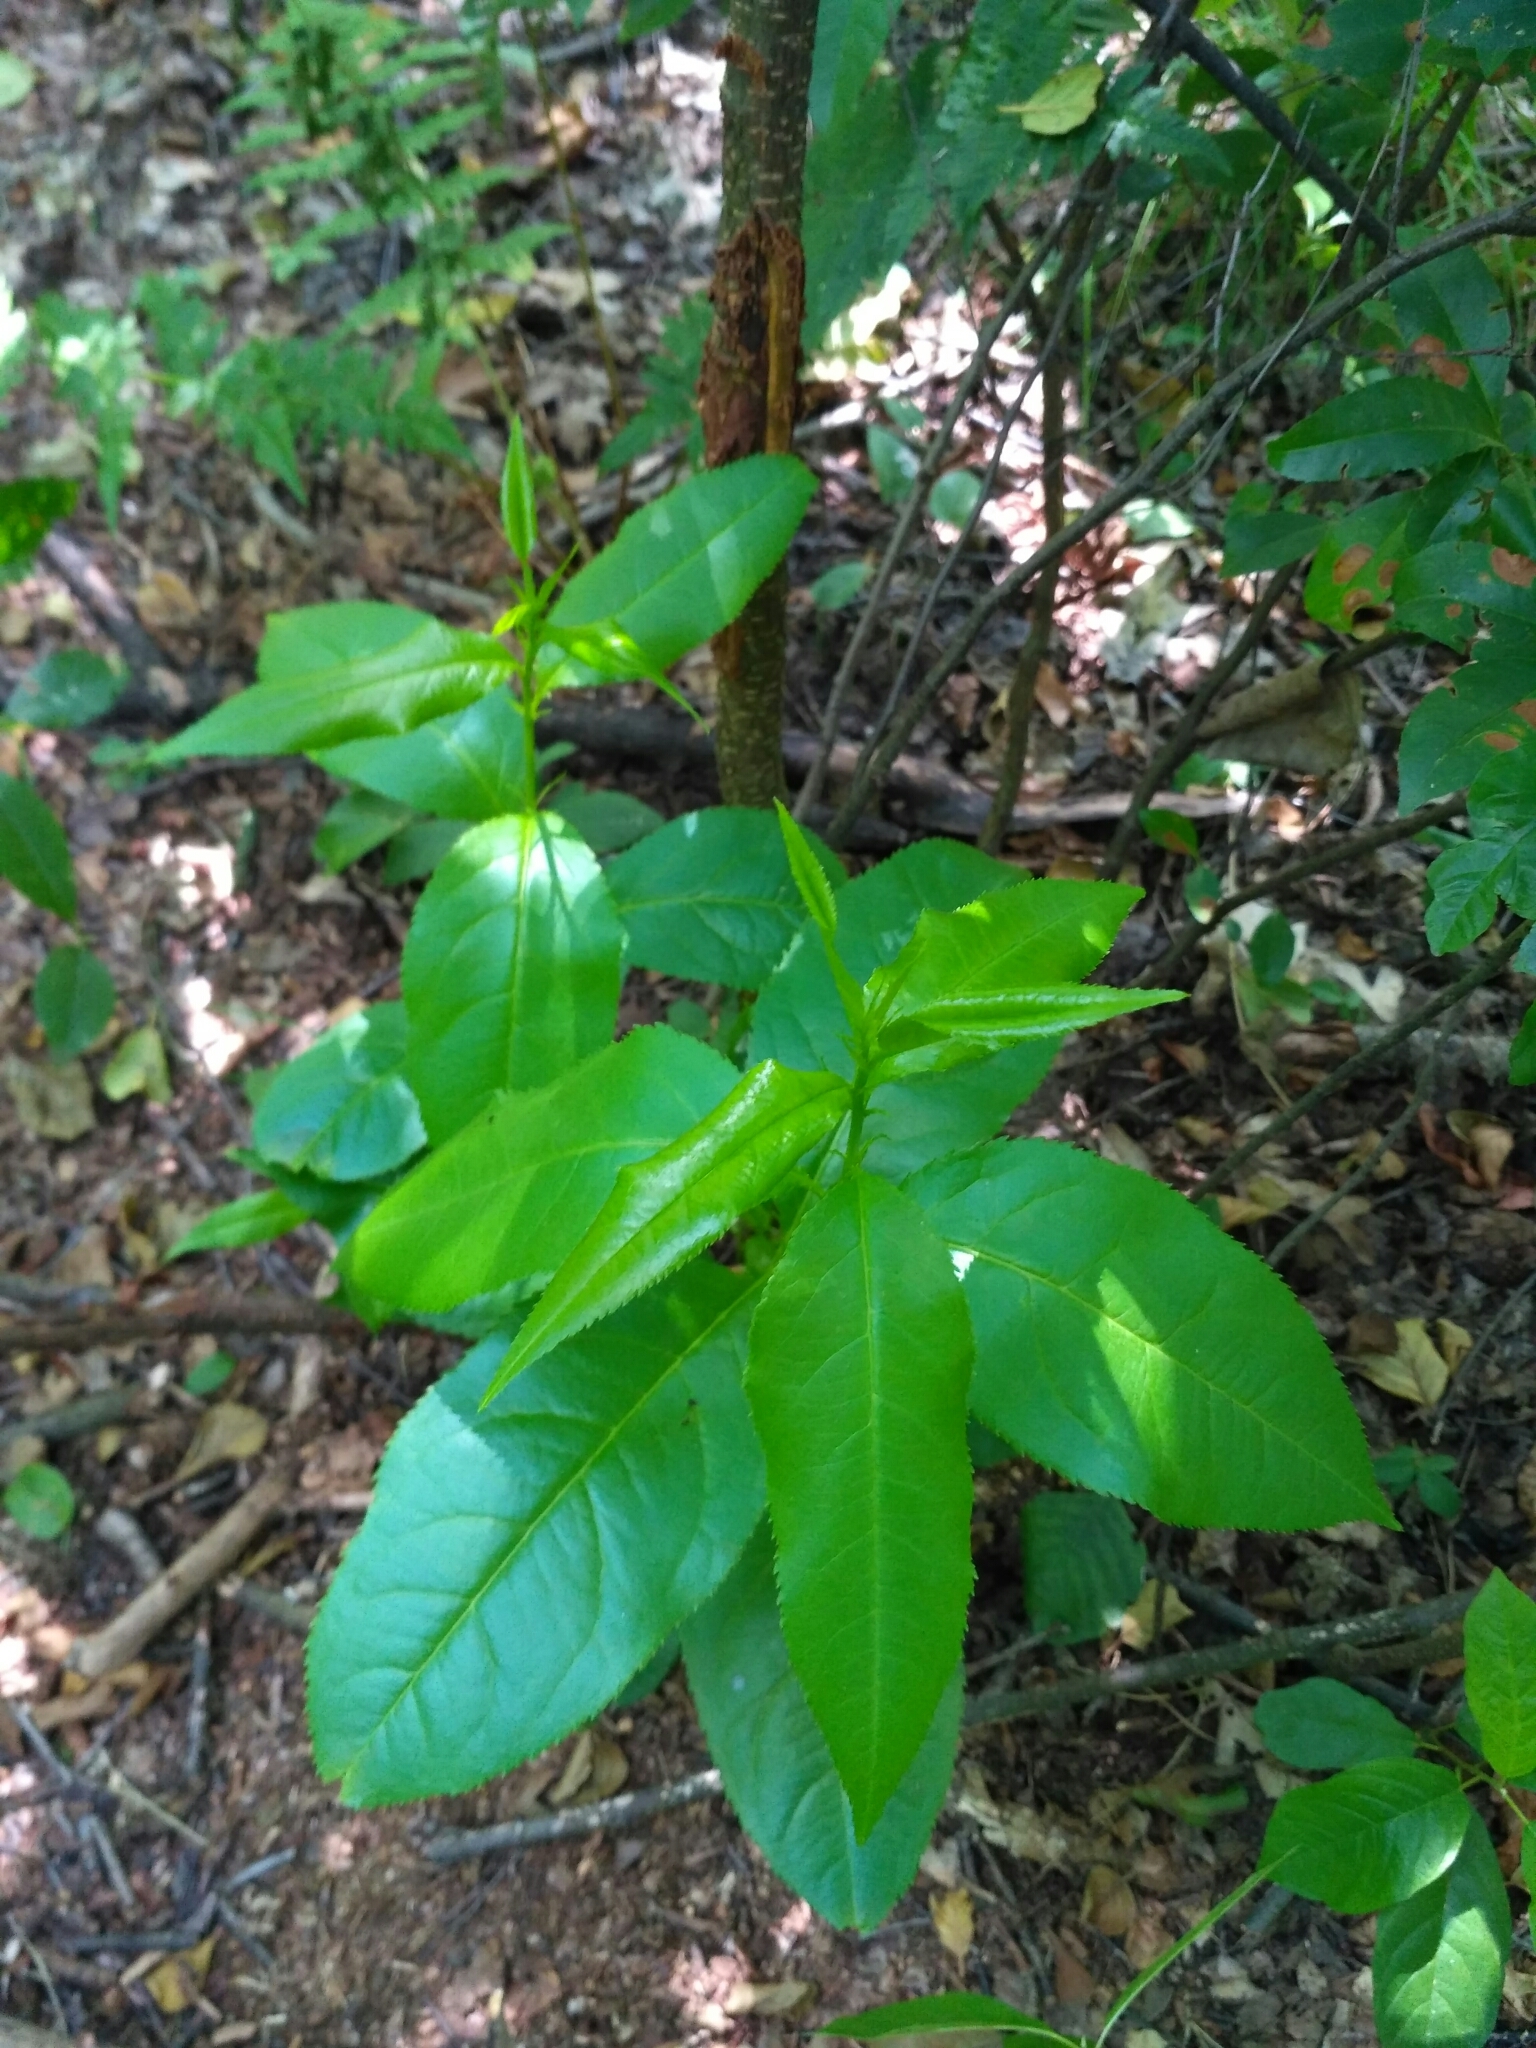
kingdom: Plantae
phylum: Tracheophyta
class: Magnoliopsida
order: Rosales
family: Rosaceae
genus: Prunus
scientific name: Prunus serotina
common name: Black cherry
